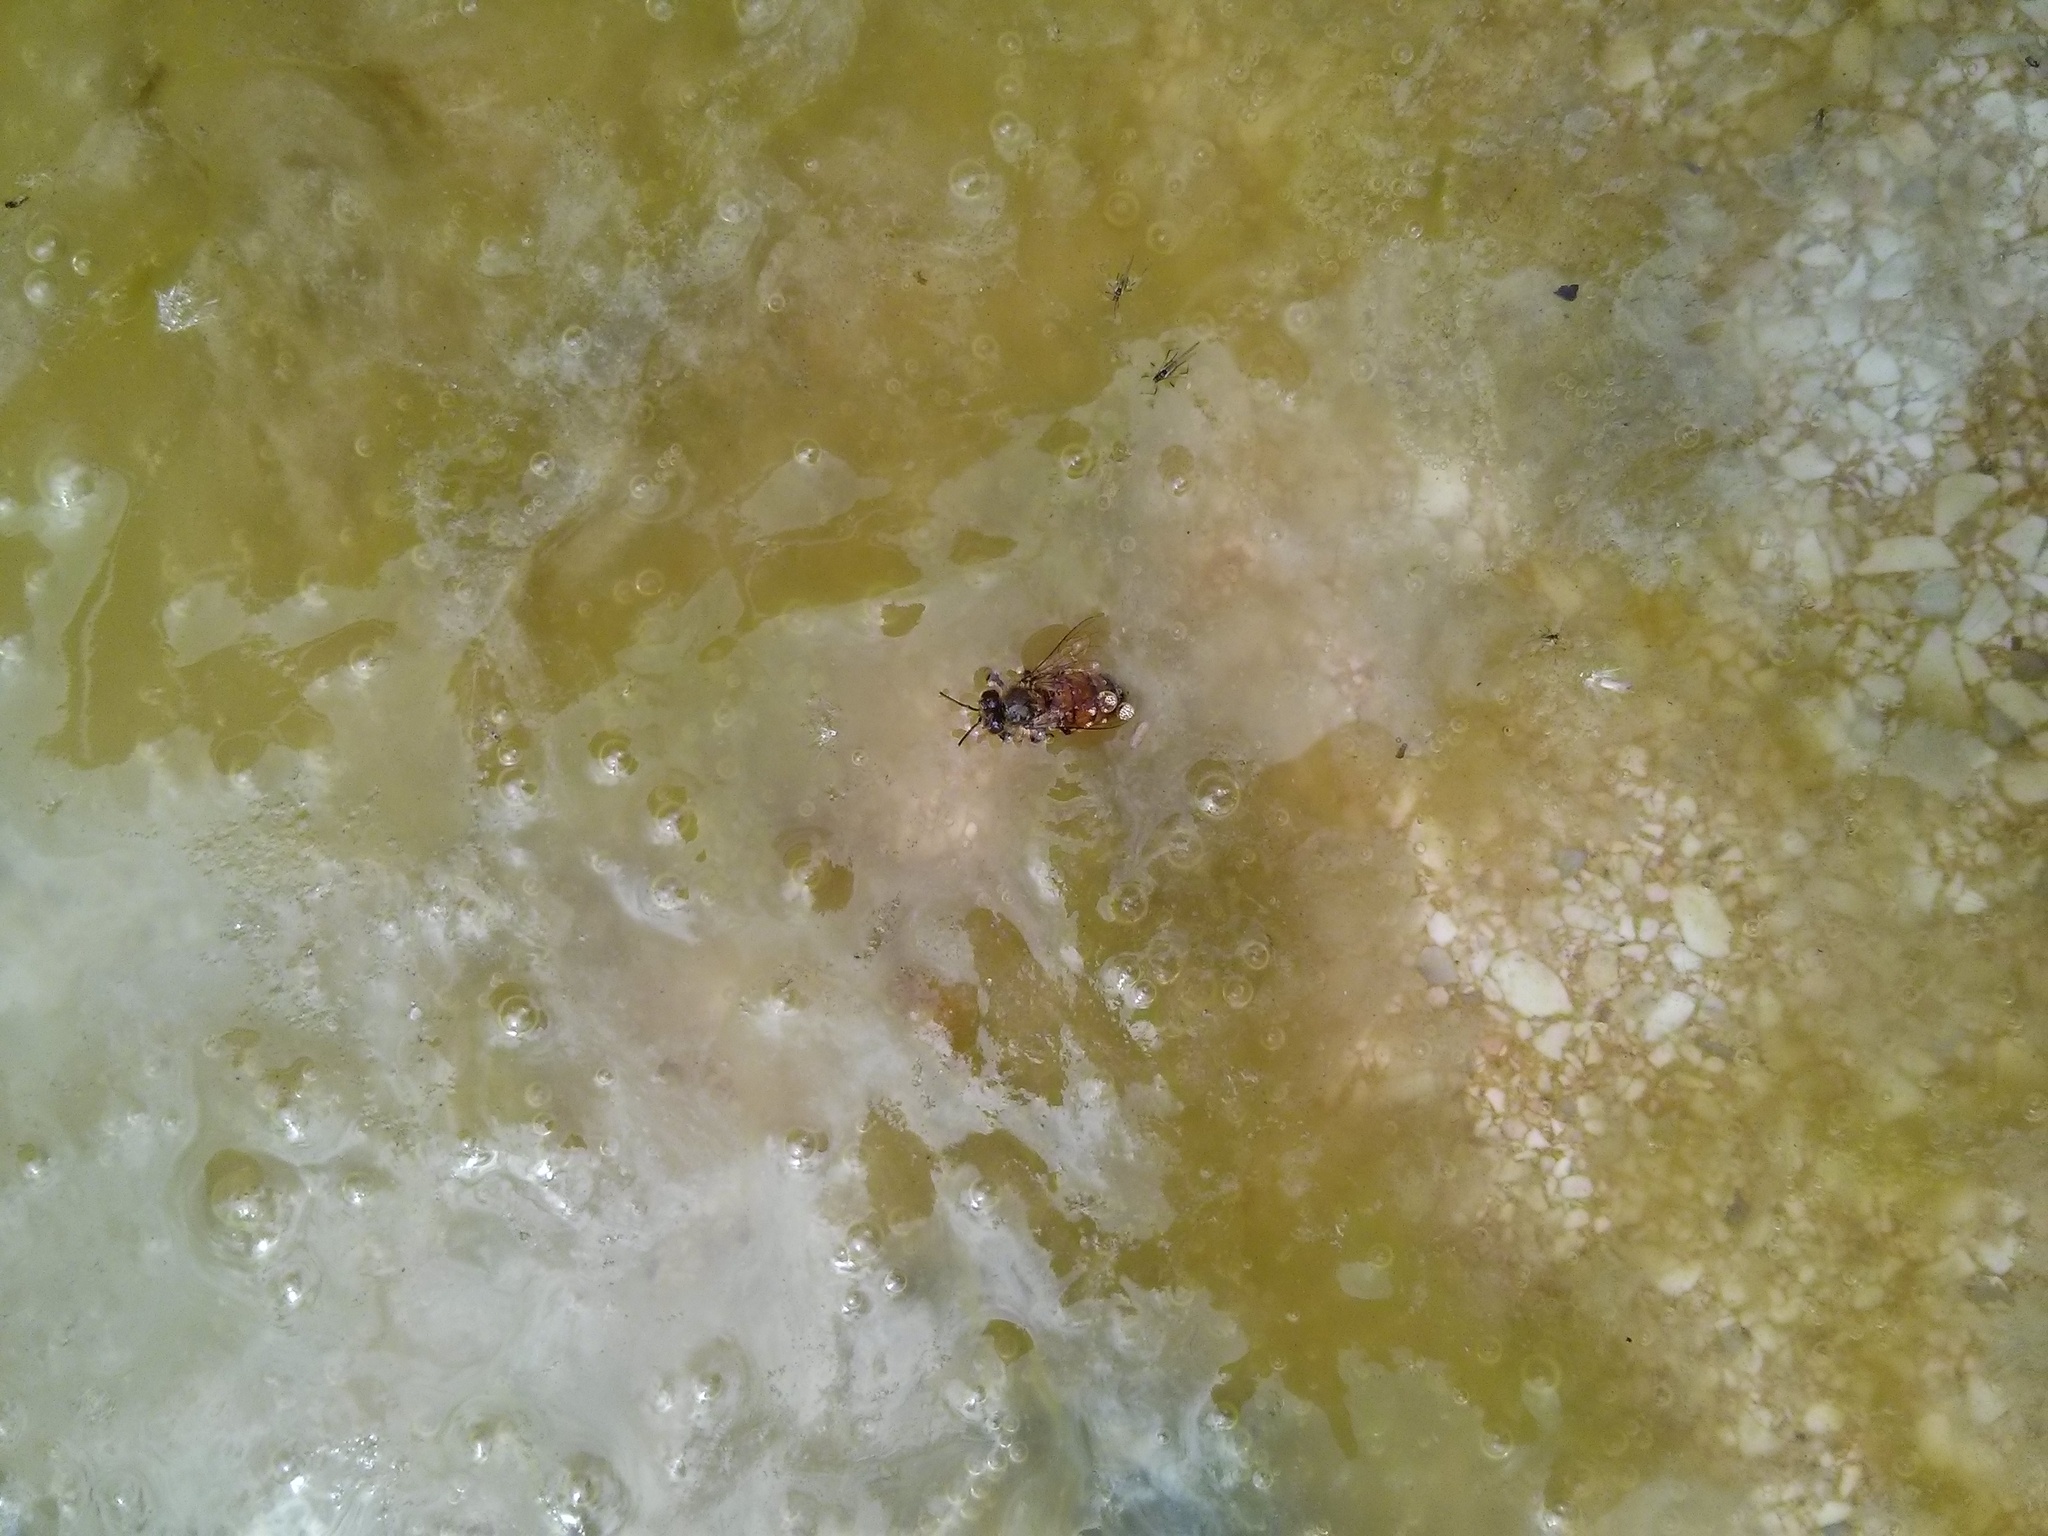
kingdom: Animalia
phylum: Arthropoda
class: Insecta
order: Hymenoptera
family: Apidae
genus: Apis
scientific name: Apis mellifera
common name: Honey bee
